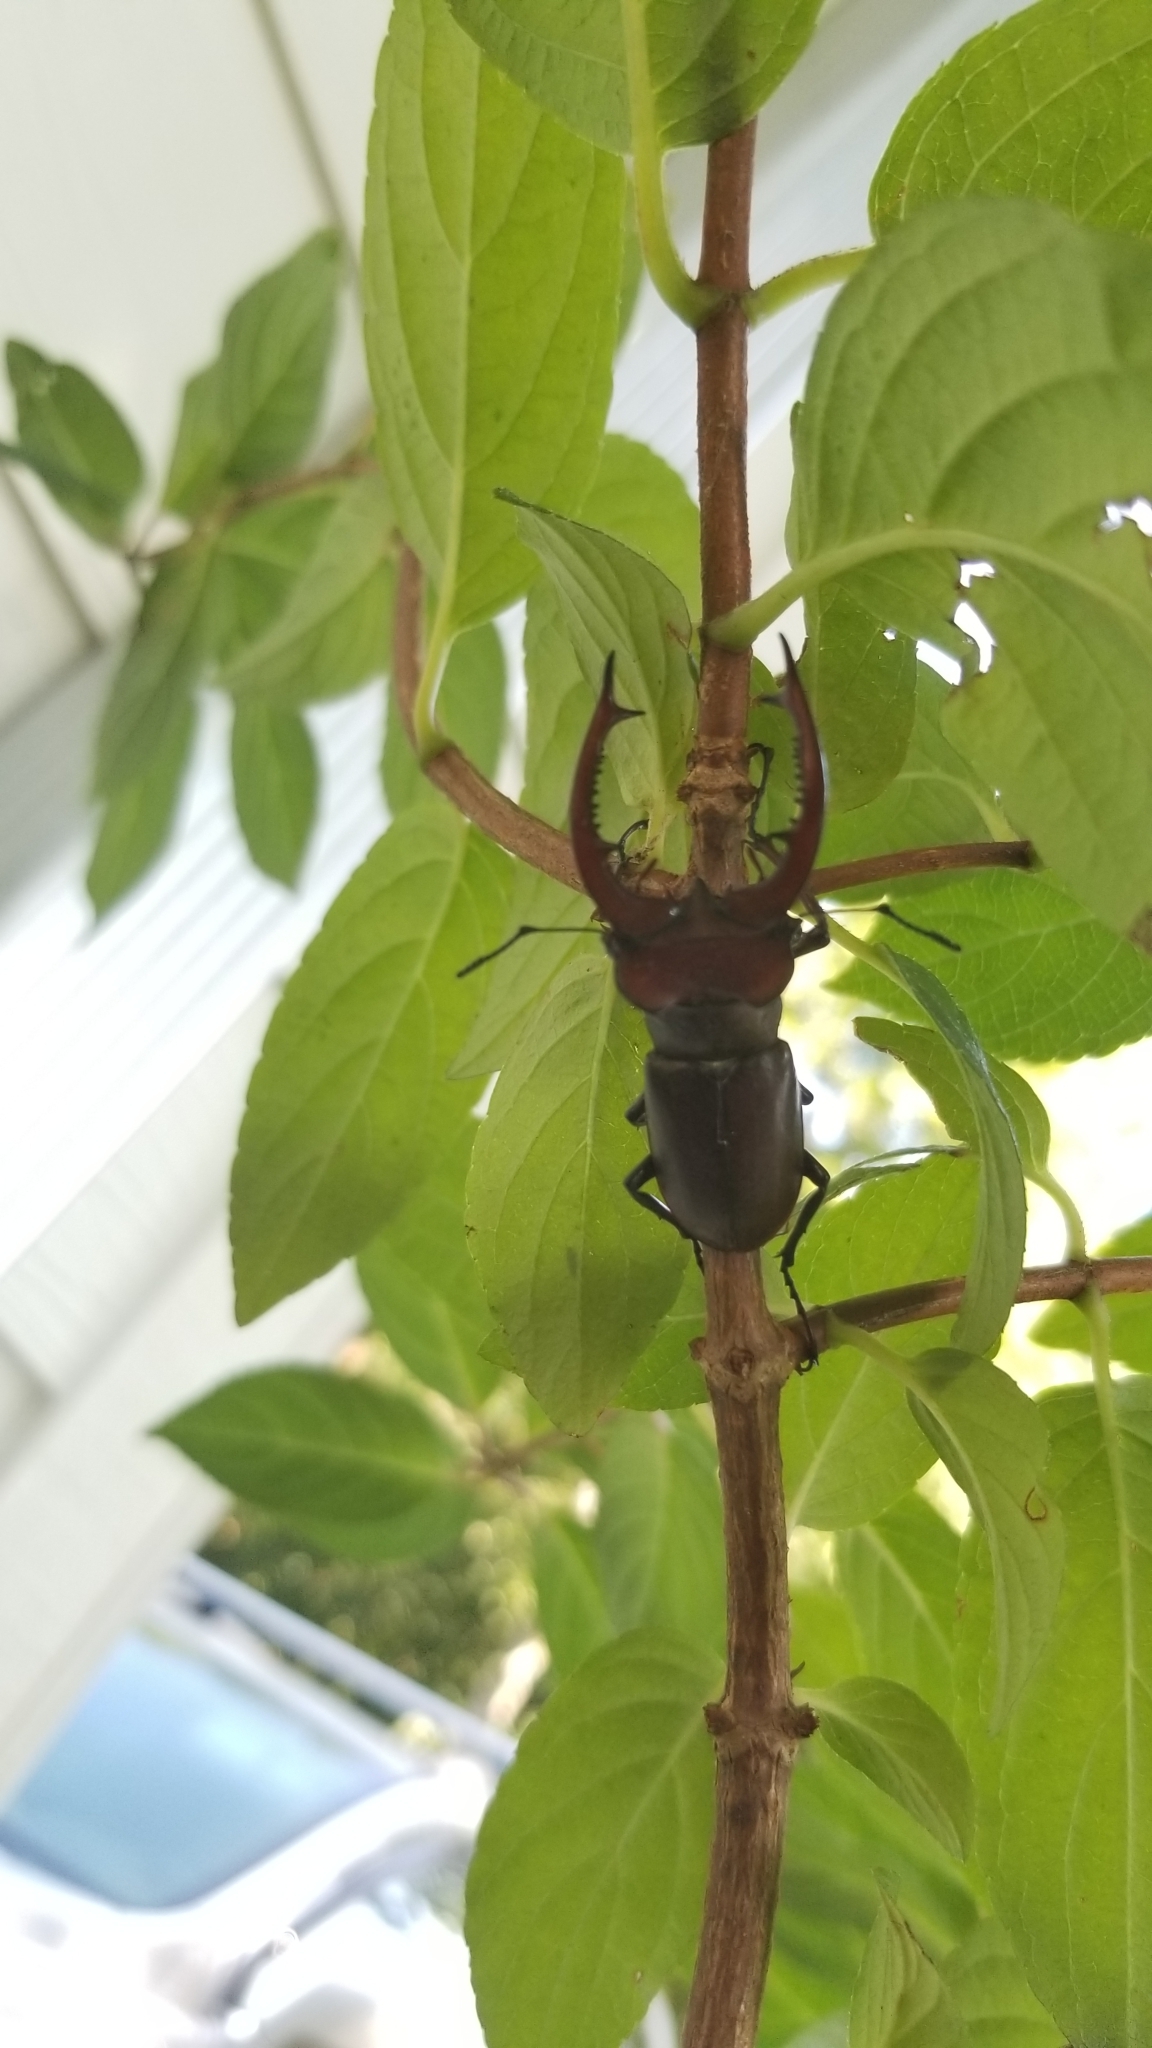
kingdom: Animalia
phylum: Arthropoda
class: Insecta
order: Coleoptera
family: Lucanidae
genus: Lucanus
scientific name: Lucanus elaphus
